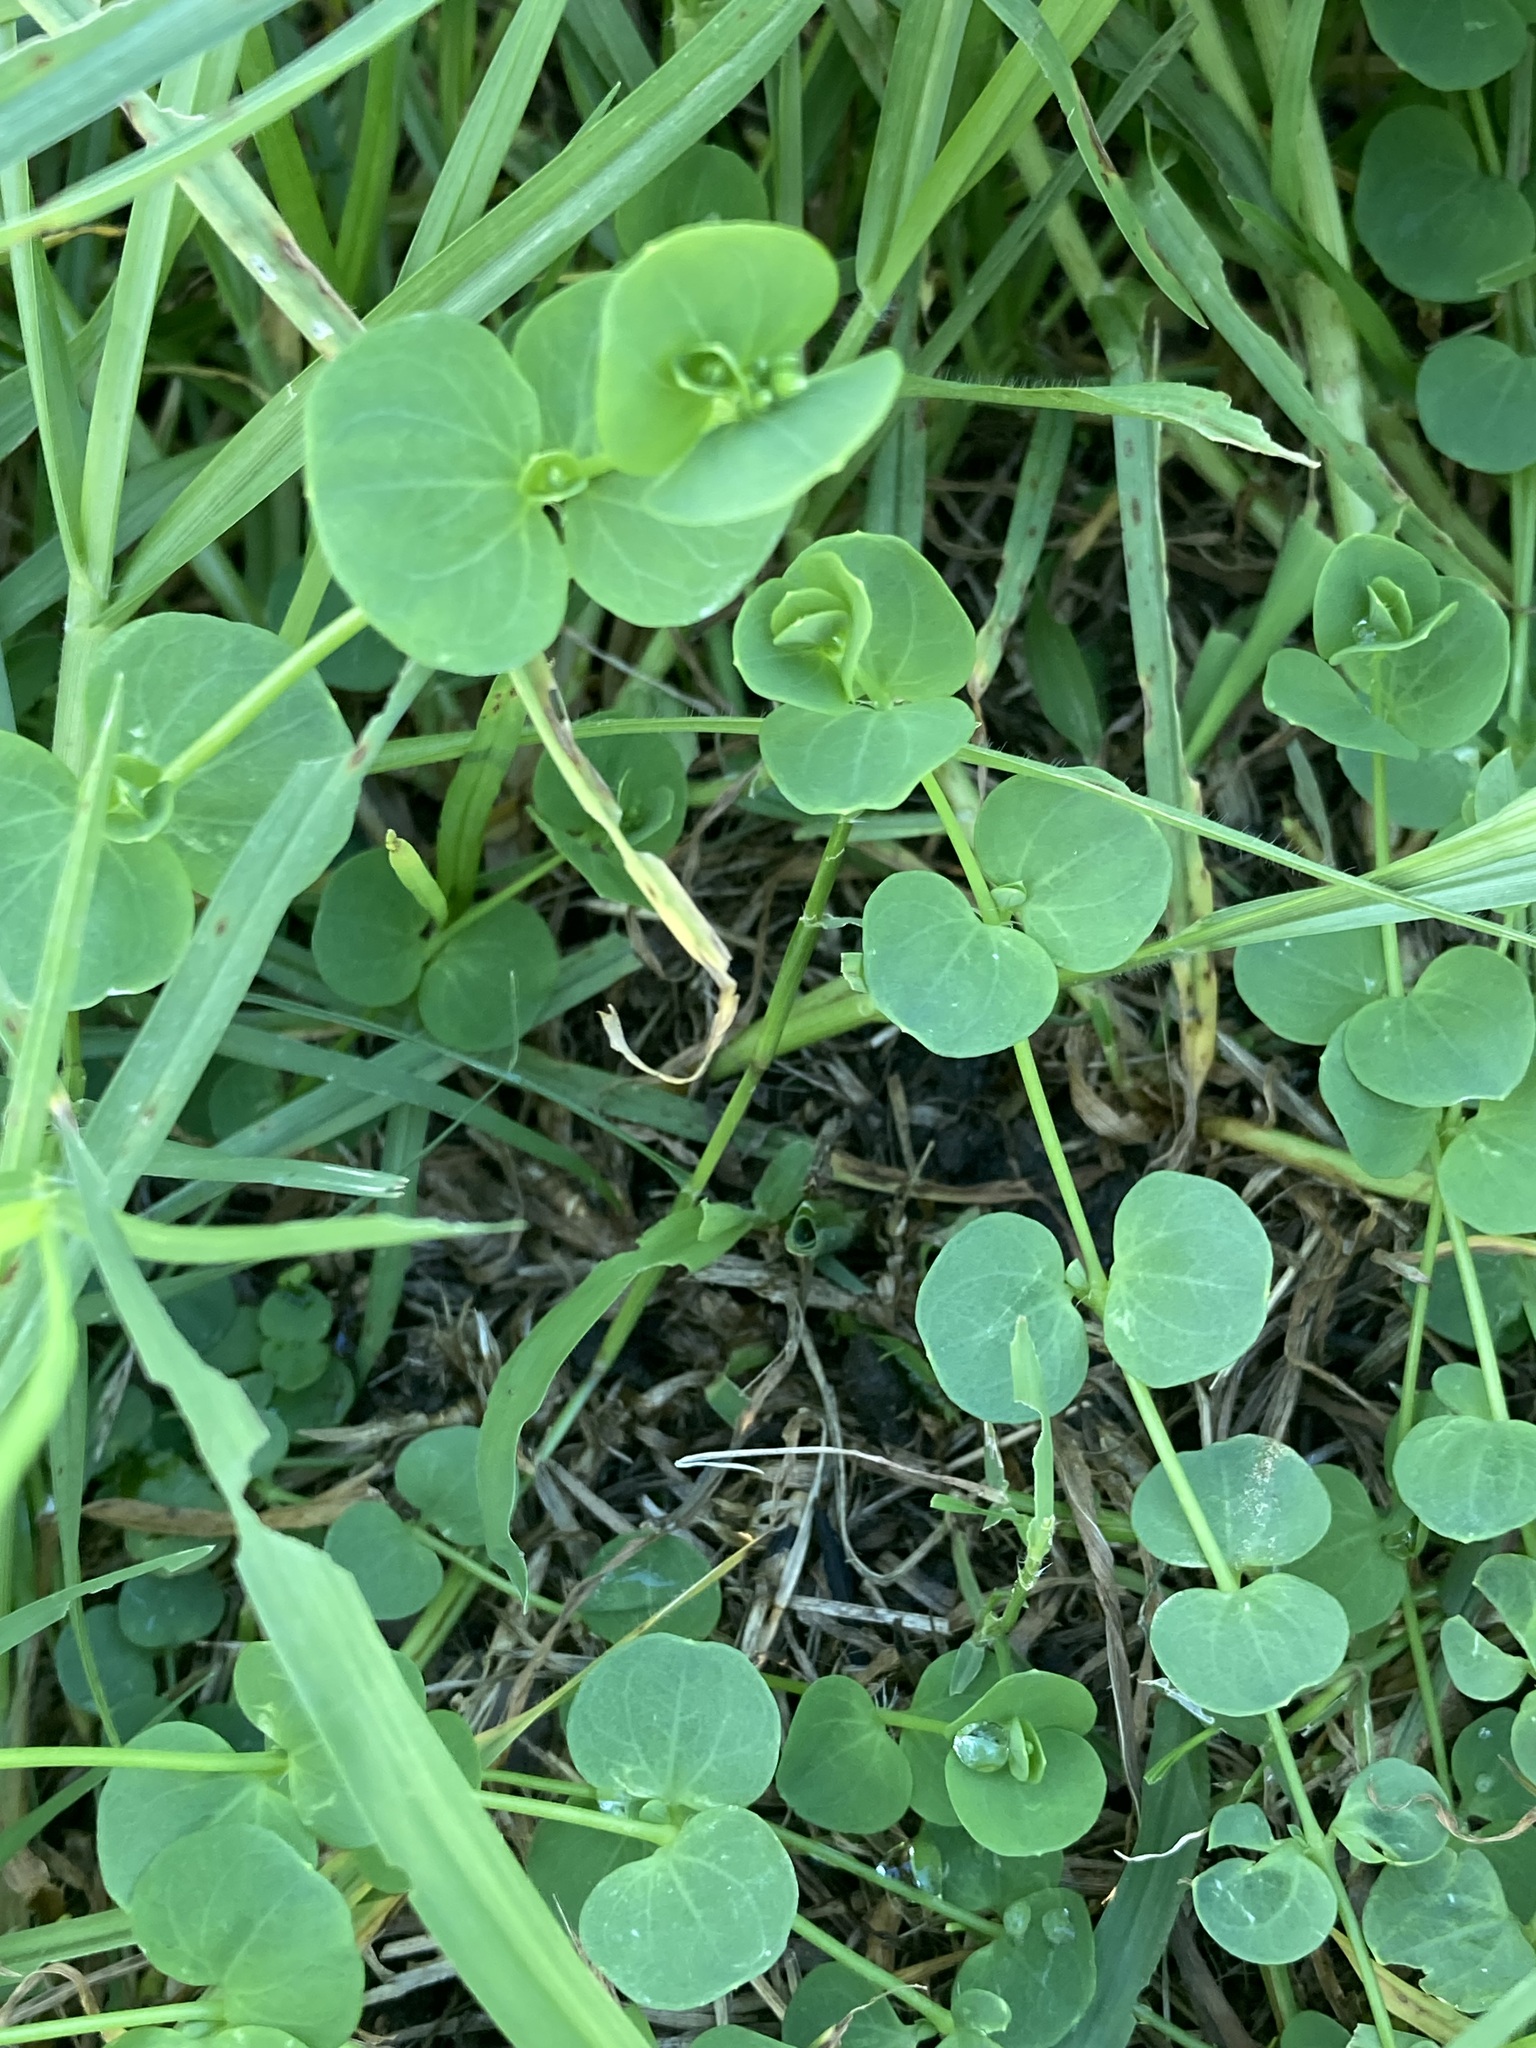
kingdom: Plantae
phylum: Tracheophyta
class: Magnoliopsida
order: Caryophyllales
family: Caryophyllaceae
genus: Drymaria
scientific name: Drymaria cordata
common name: Whitesnow
